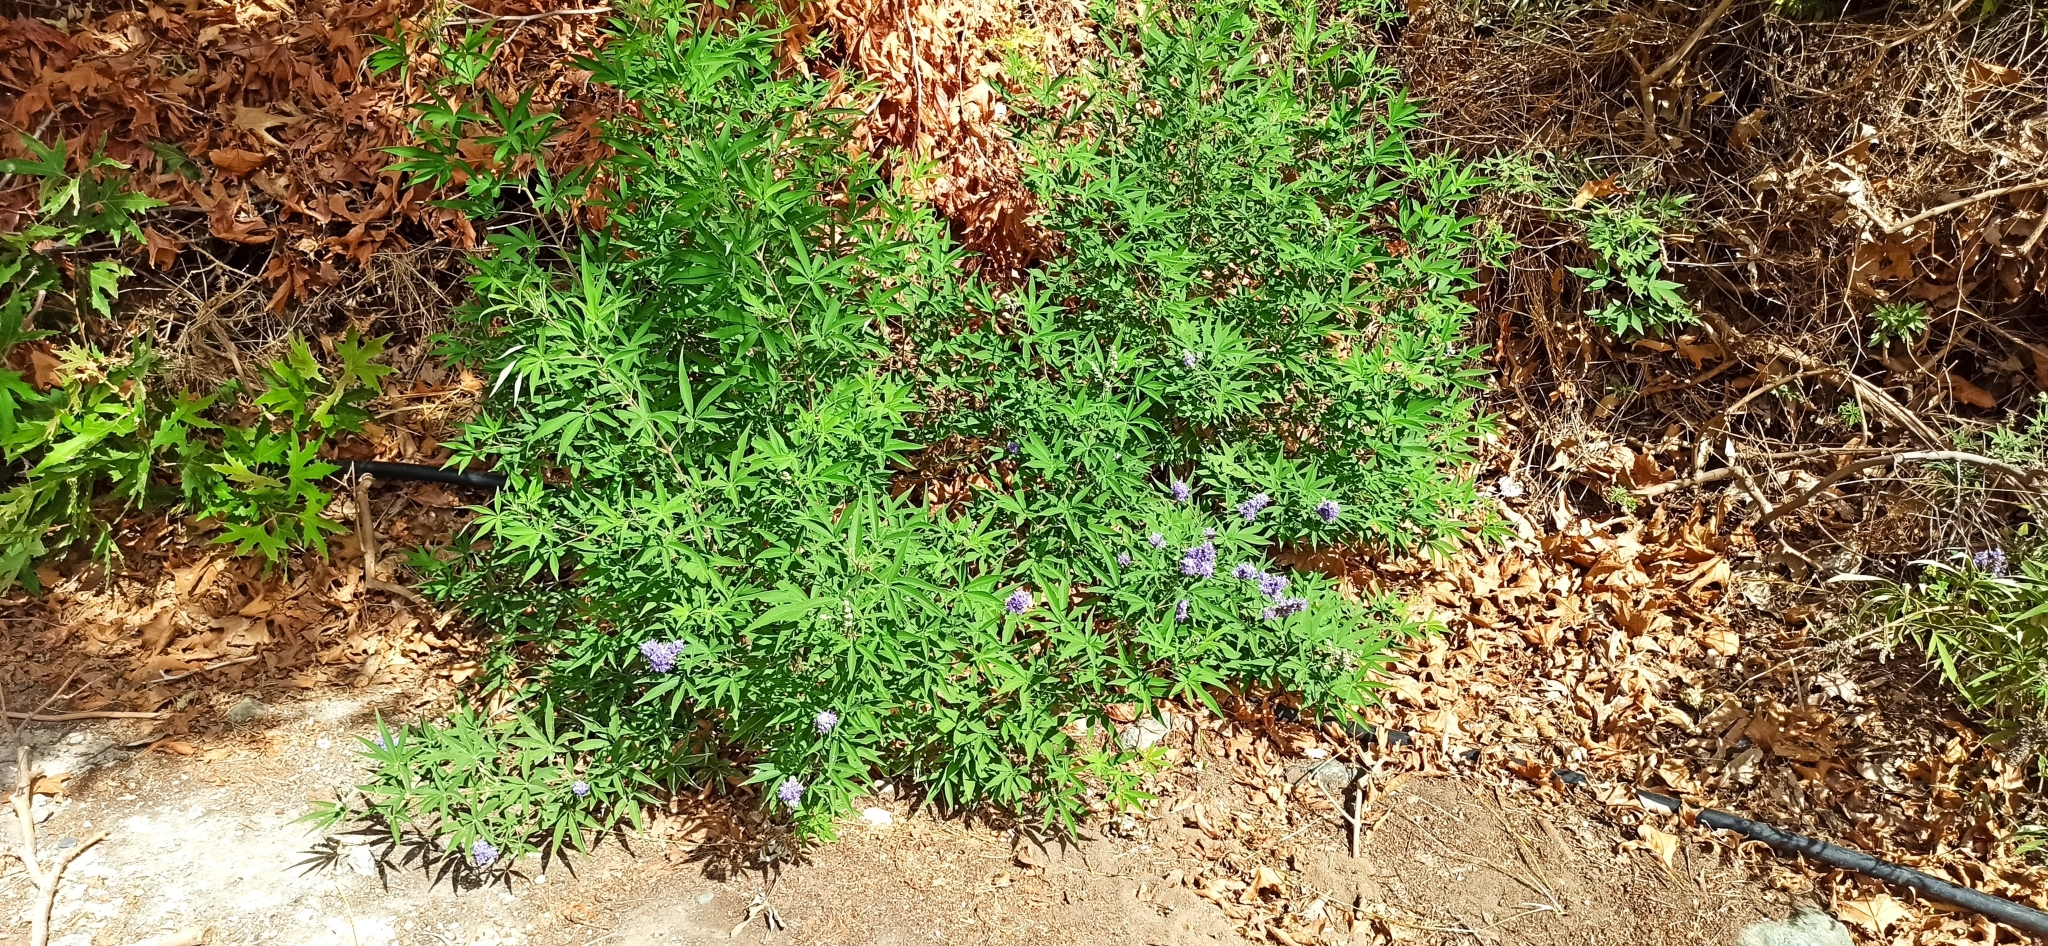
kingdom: Plantae
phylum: Tracheophyta
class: Magnoliopsida
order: Lamiales
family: Lamiaceae
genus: Vitex
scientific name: Vitex agnus-castus
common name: Chasteberry
